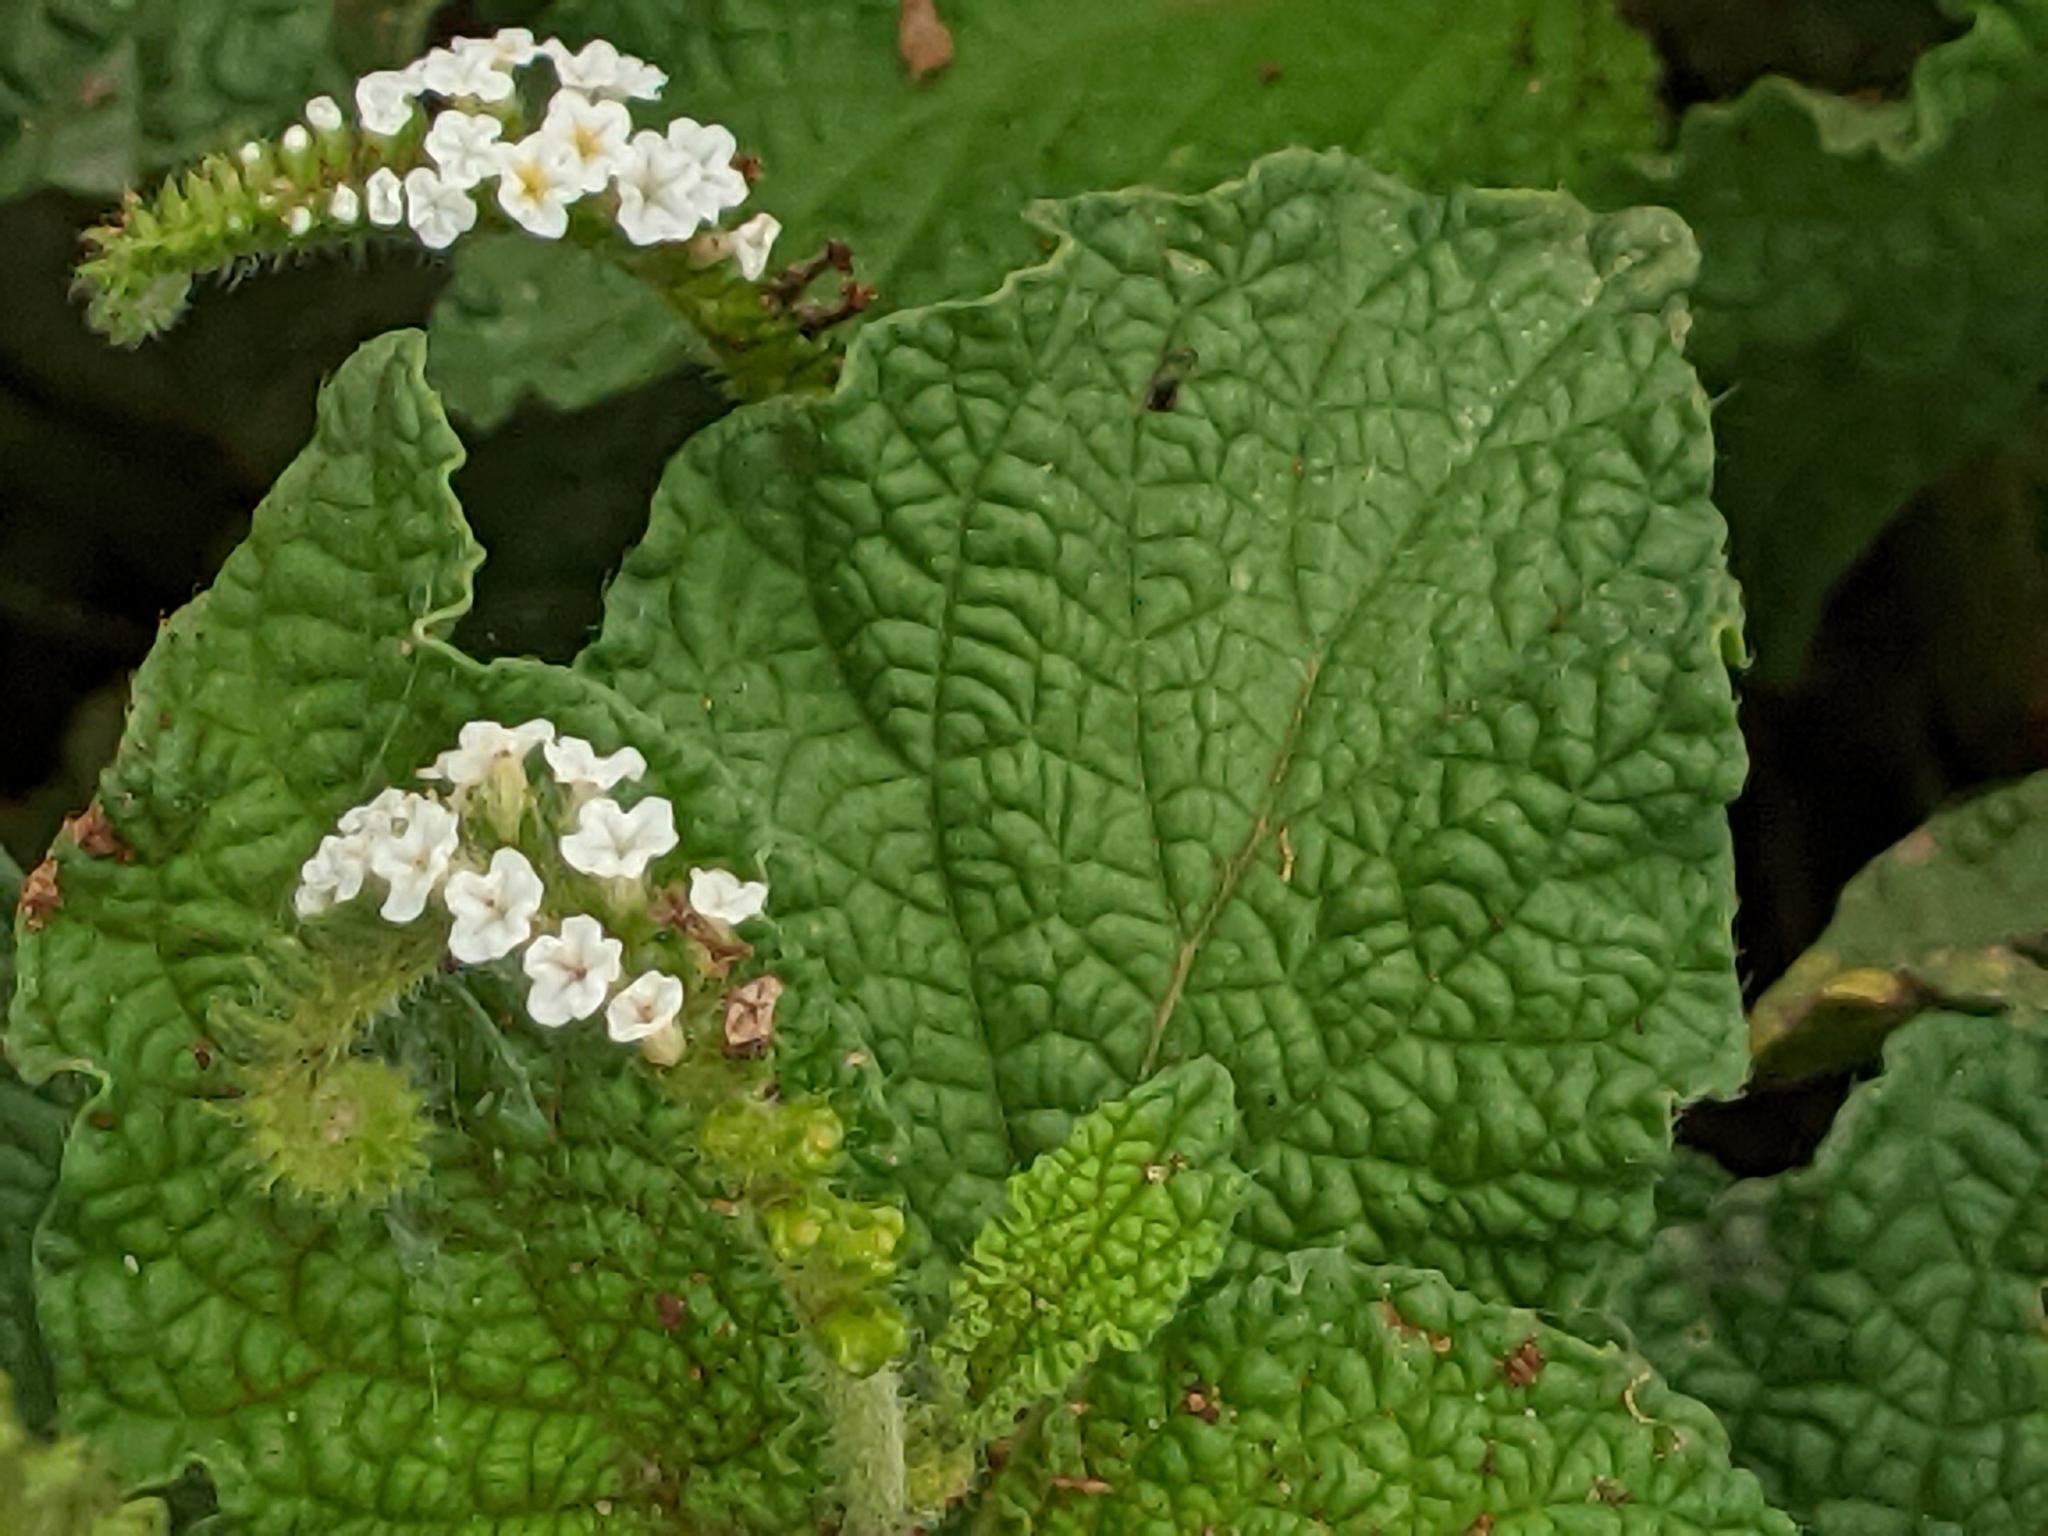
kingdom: Plantae
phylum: Tracheophyta
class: Magnoliopsida
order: Boraginales
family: Heliotropiaceae
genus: Heliotropium
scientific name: Heliotropium indicum
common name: Indian heliotrope
